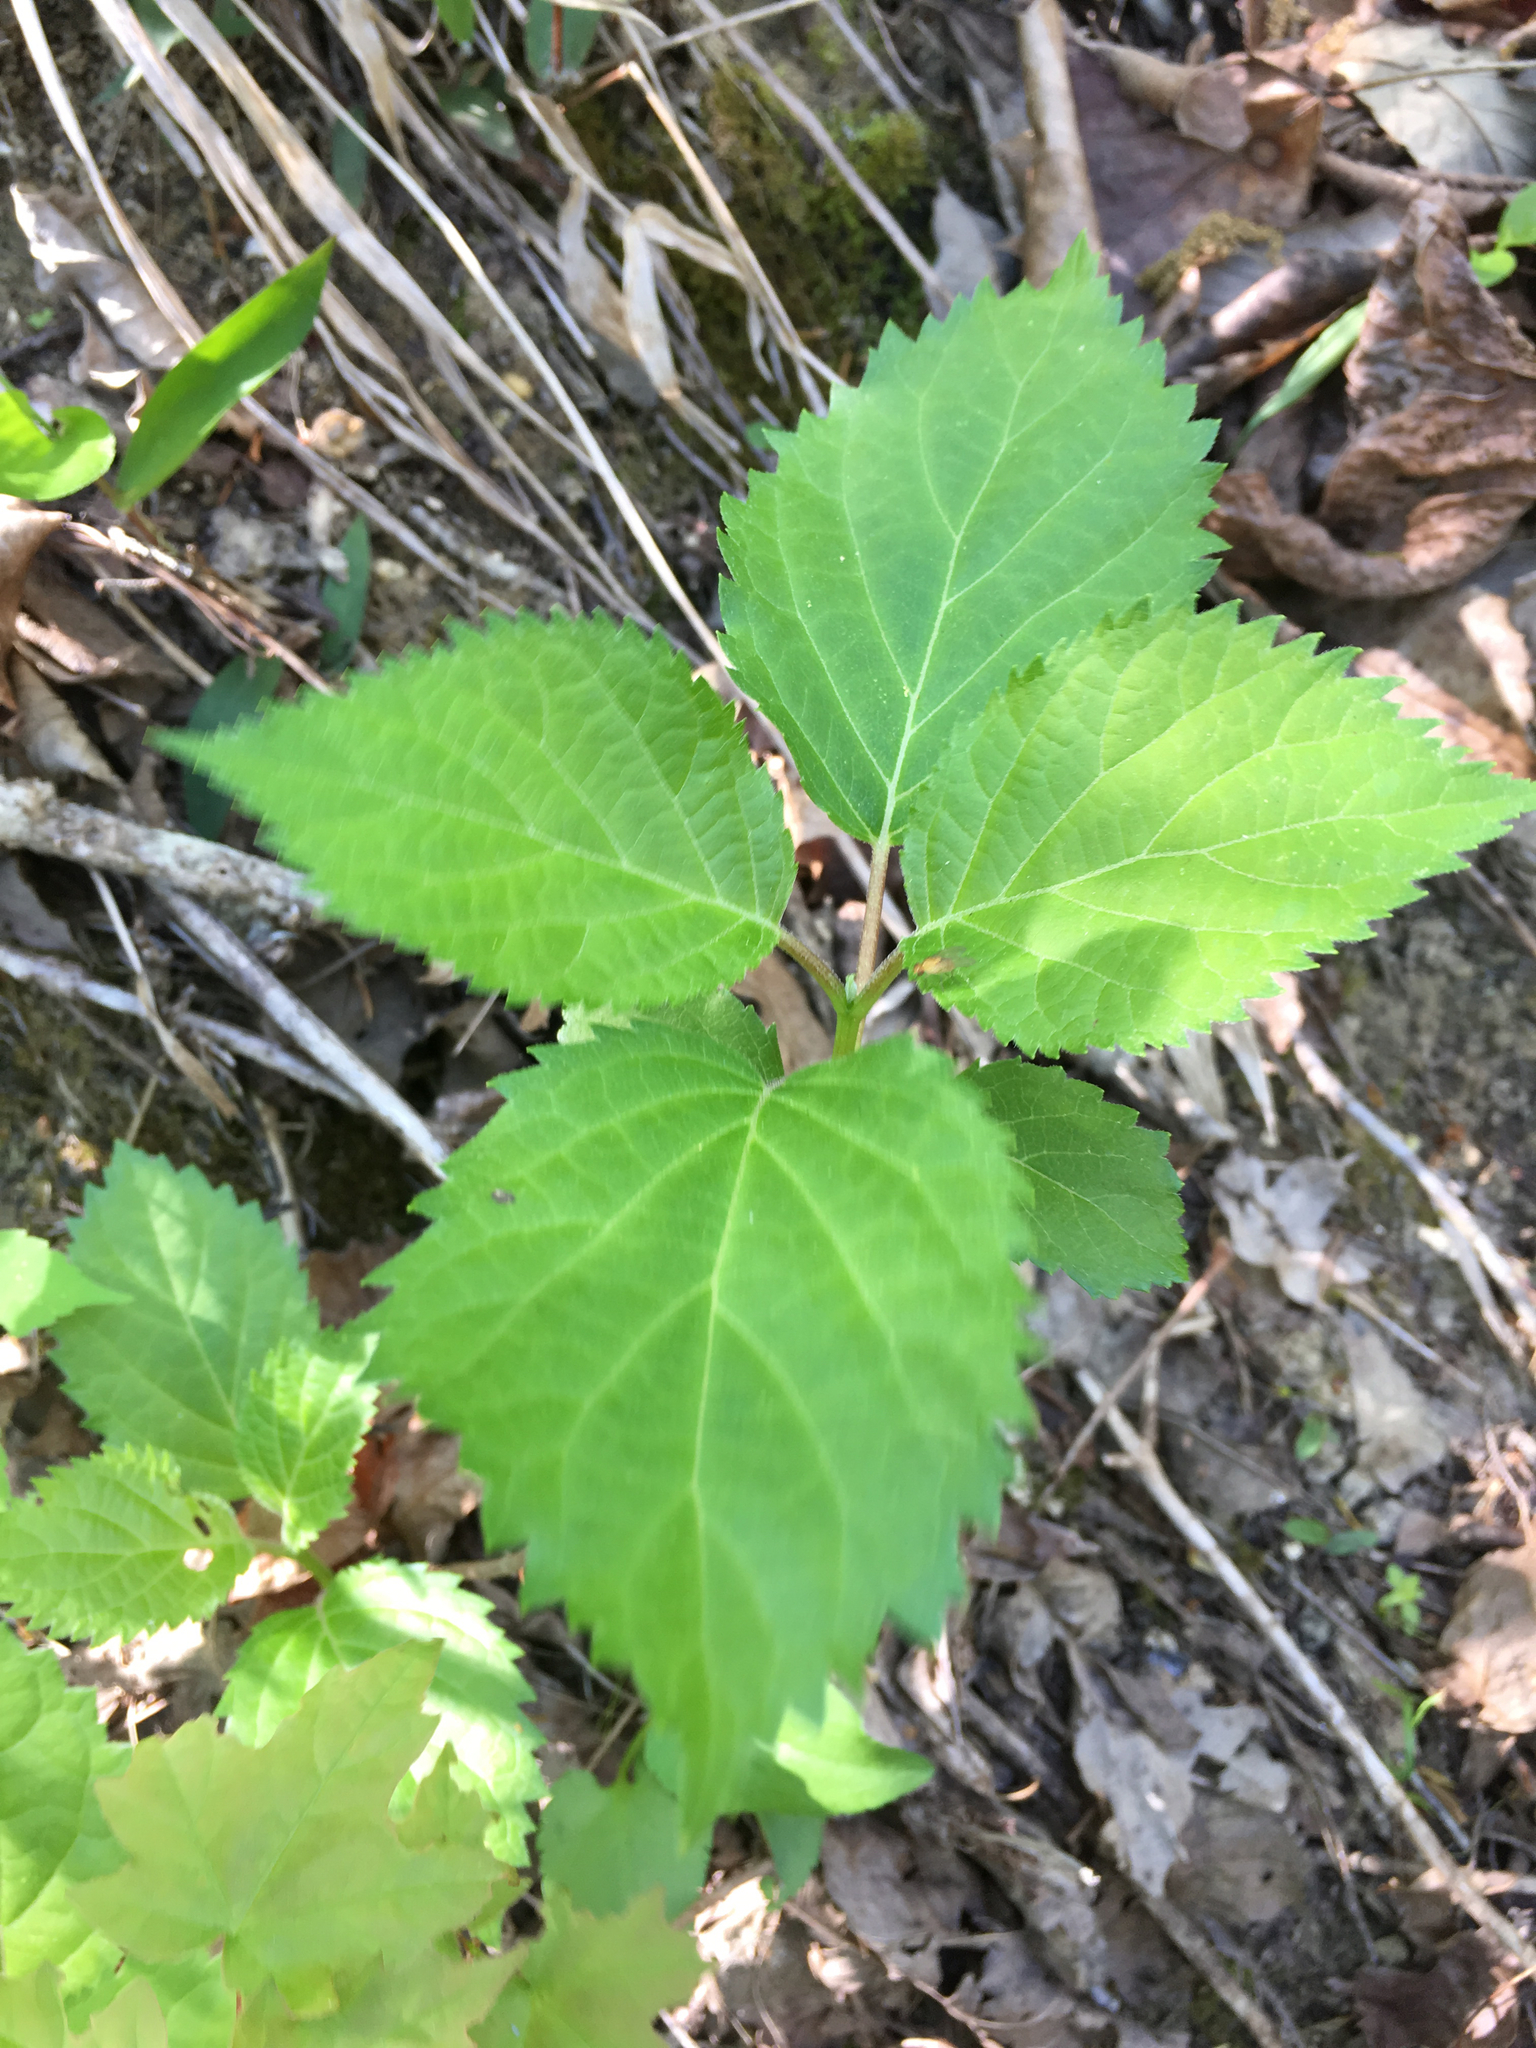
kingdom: Plantae
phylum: Tracheophyta
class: Magnoliopsida
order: Cornales
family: Hydrangeaceae
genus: Hydrangea
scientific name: Hydrangea arborescens
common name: Sevenbark
